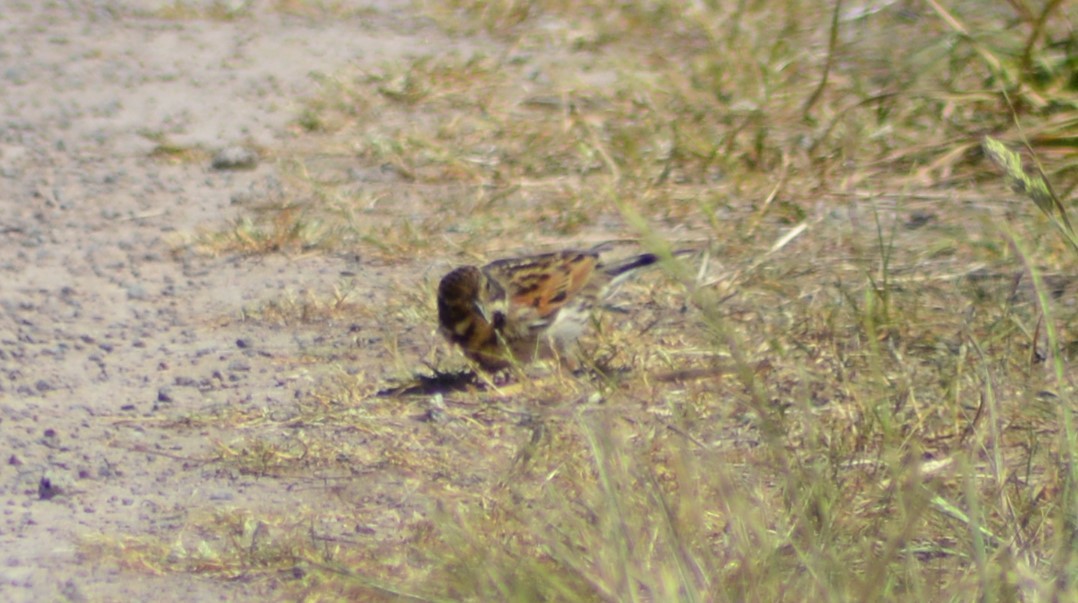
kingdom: Animalia
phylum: Chordata
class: Aves
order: Passeriformes
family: Emberizidae
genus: Emberiza
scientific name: Emberiza schoeniclus
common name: Reed bunting
